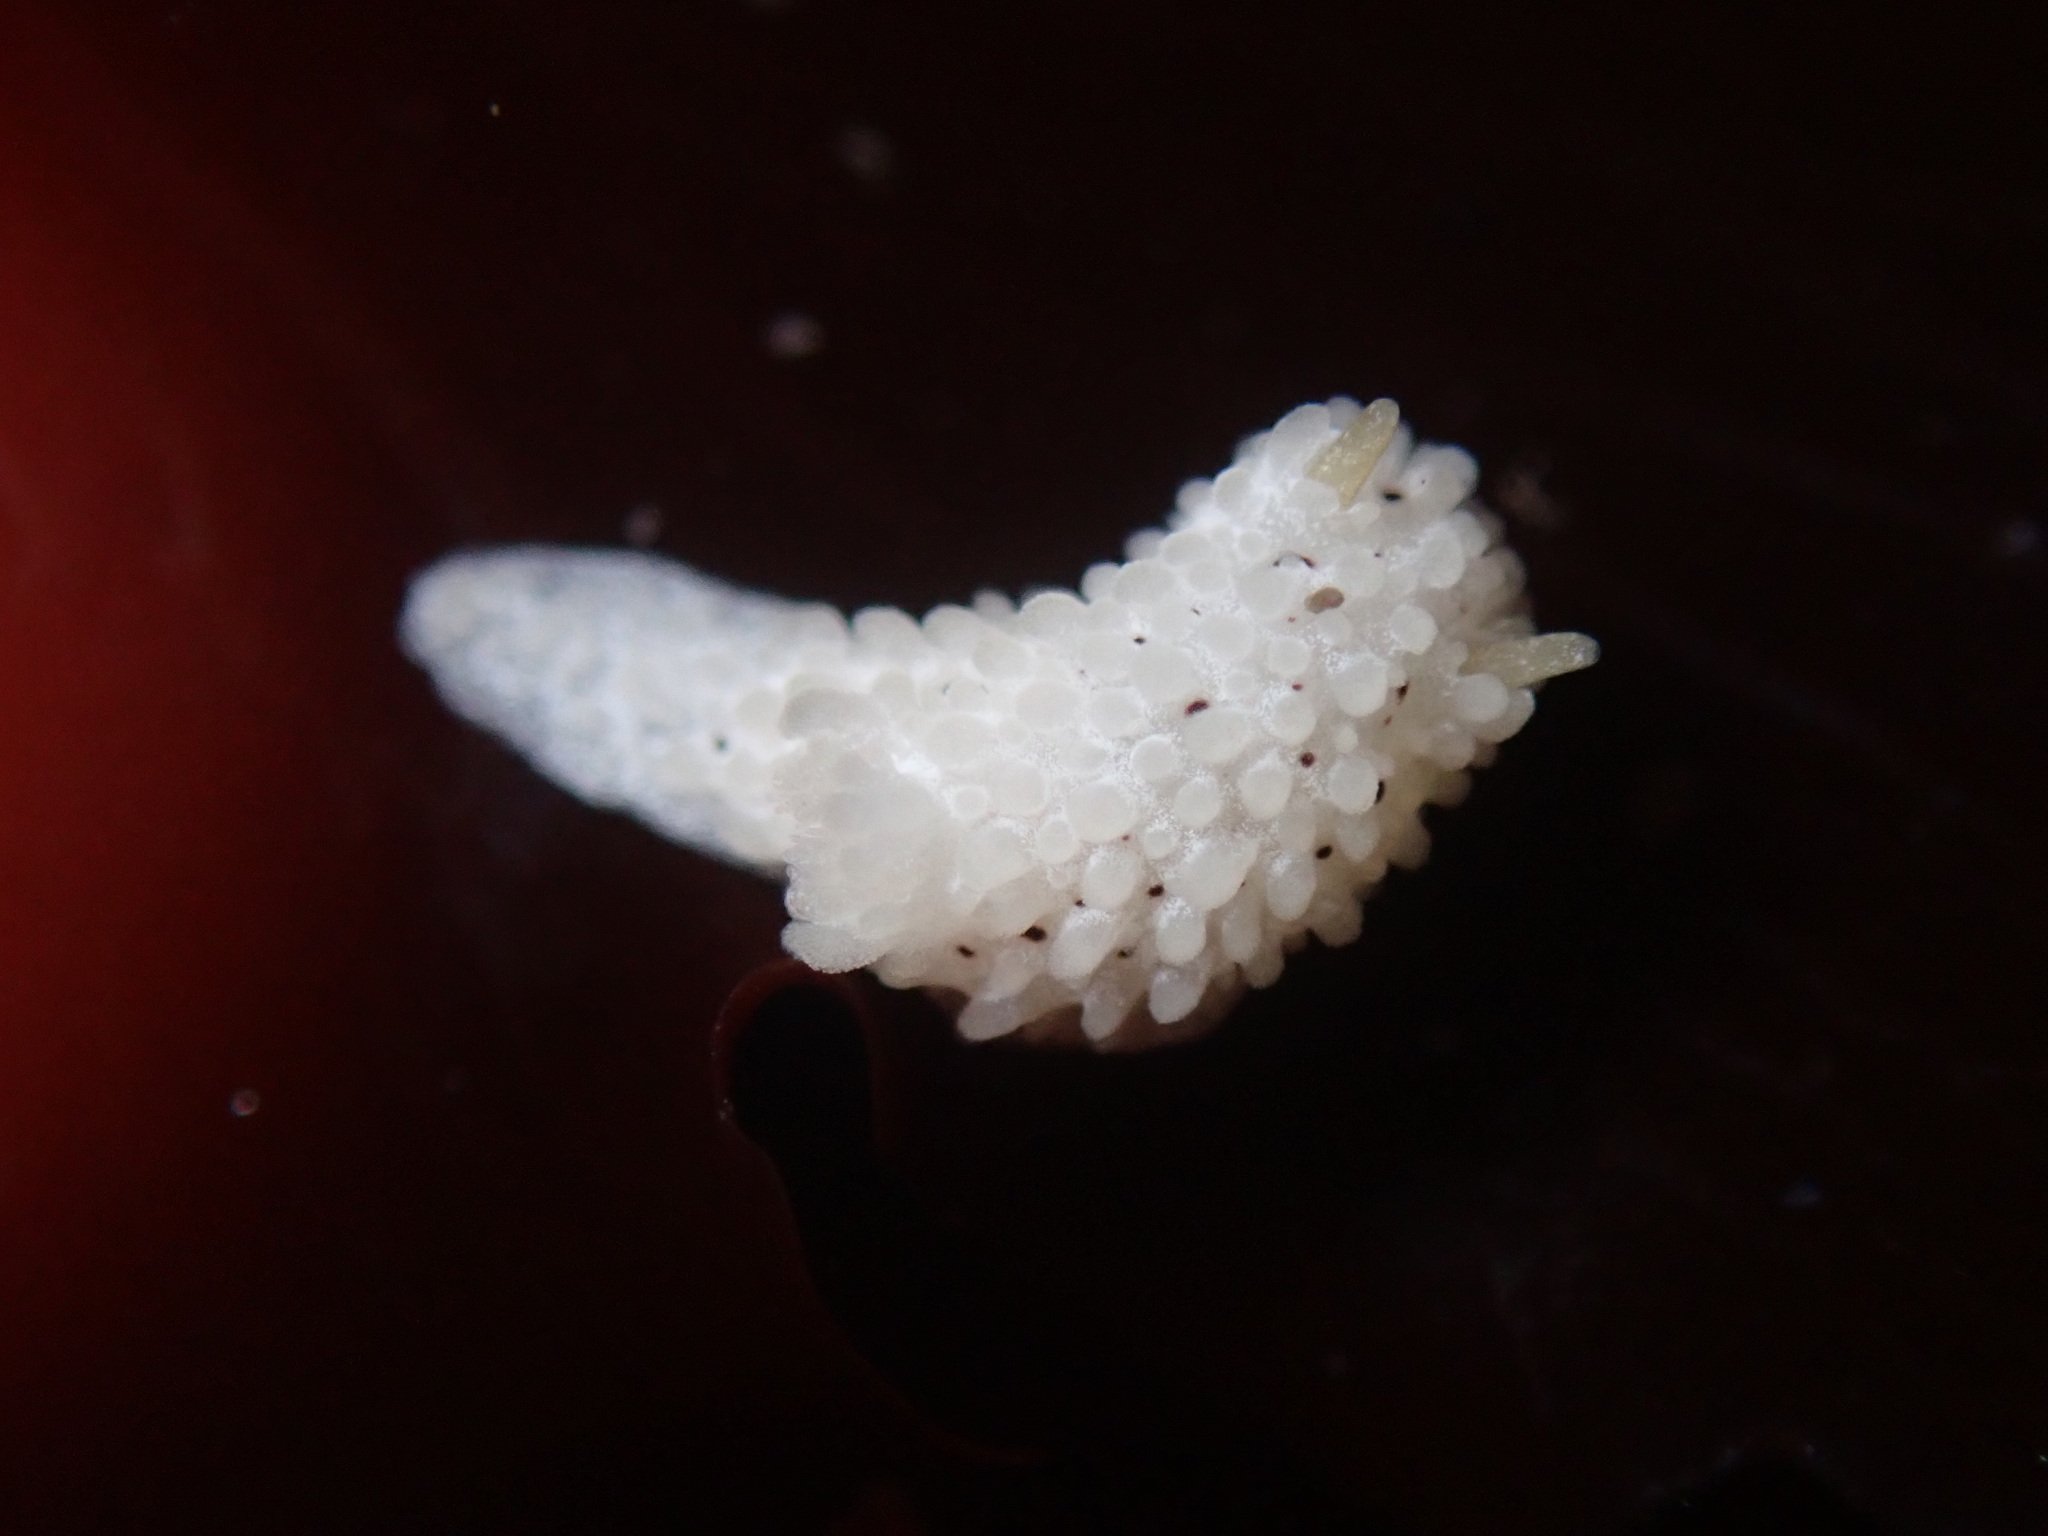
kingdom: Animalia
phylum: Mollusca
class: Gastropoda
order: Nudibranchia
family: Aegiridae
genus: Aegires
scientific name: Aegires albopunctatus
